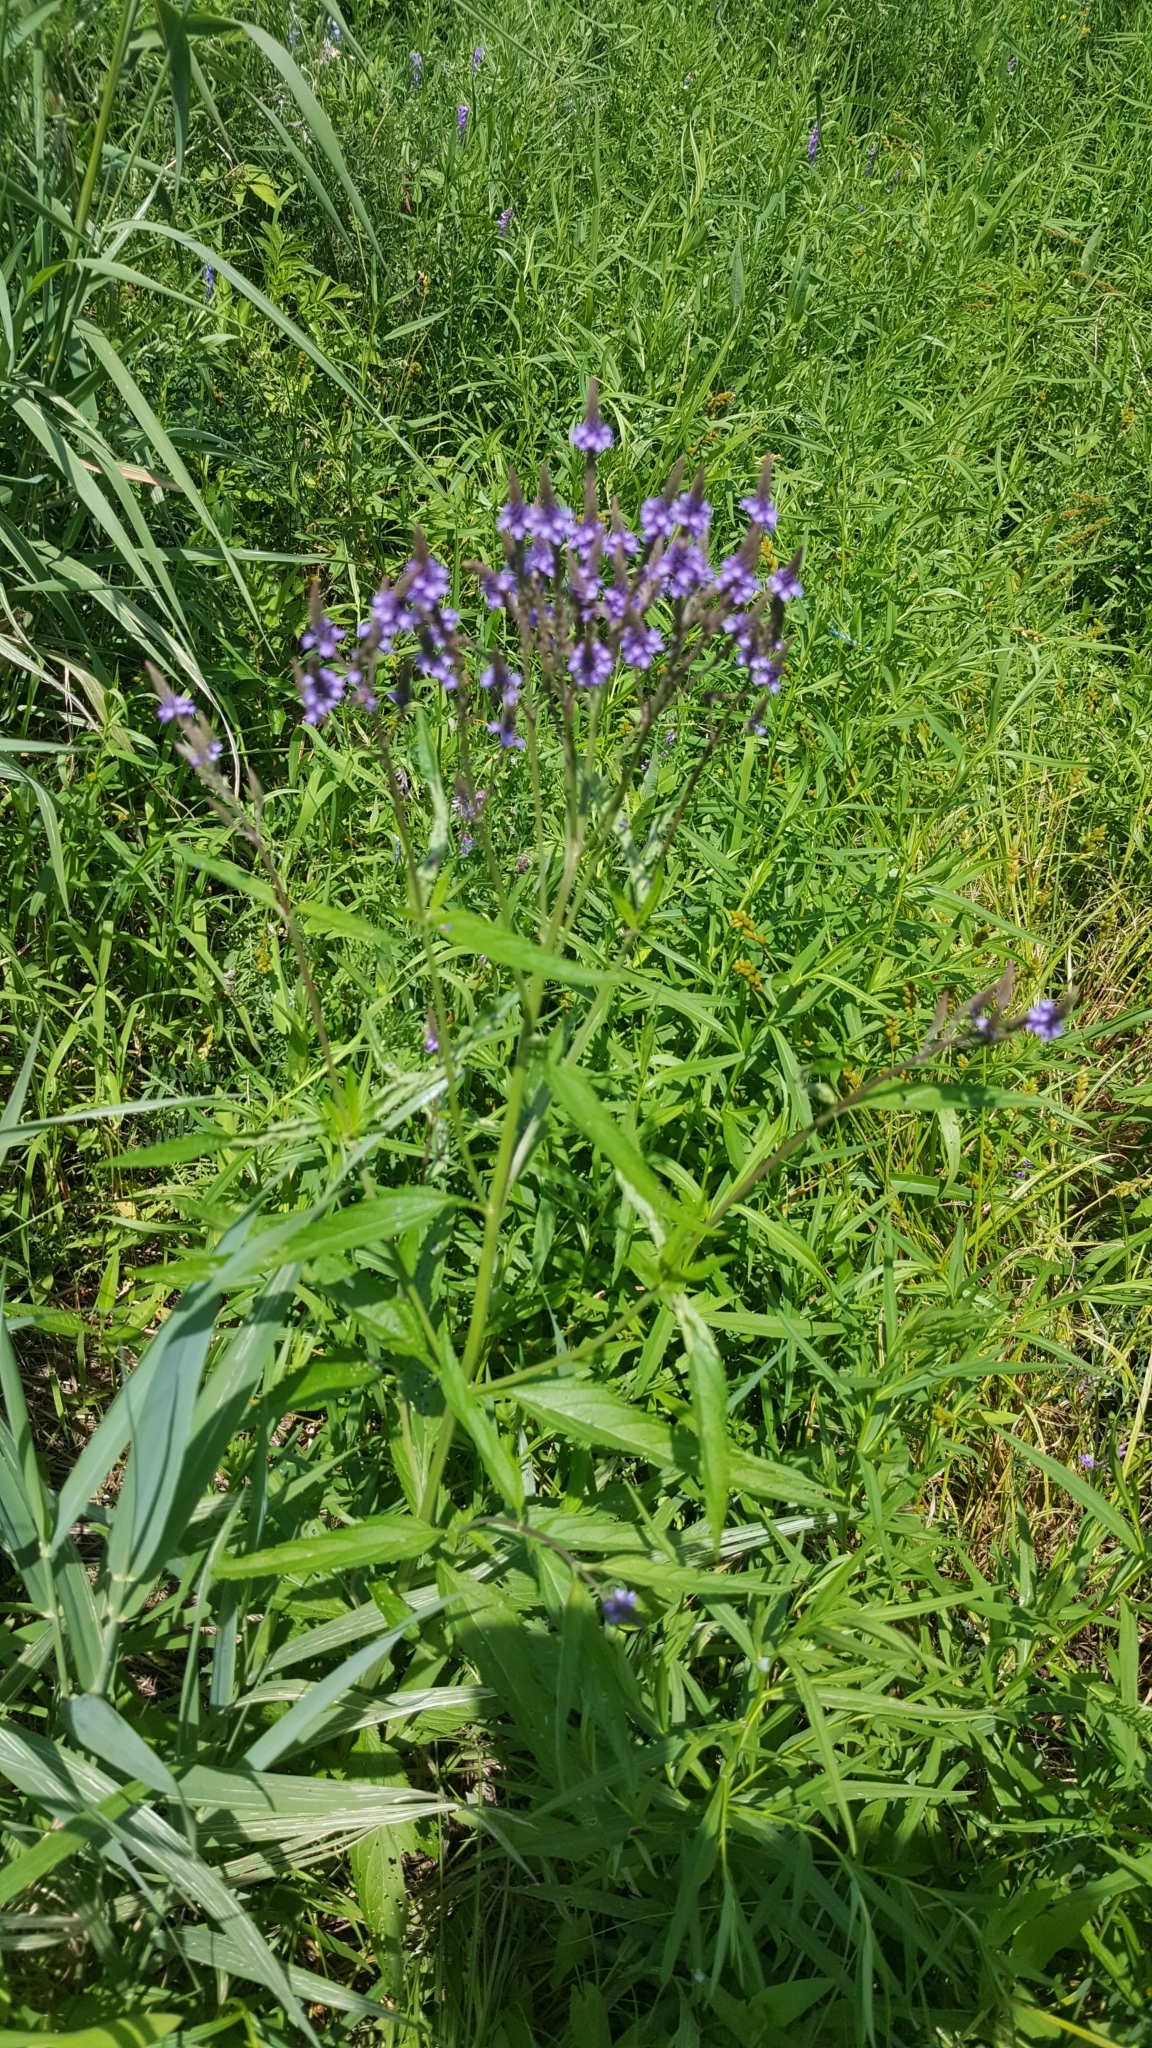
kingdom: Plantae
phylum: Tracheophyta
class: Magnoliopsida
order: Lamiales
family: Verbenaceae
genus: Verbena
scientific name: Verbena hastata
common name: American blue vervain
